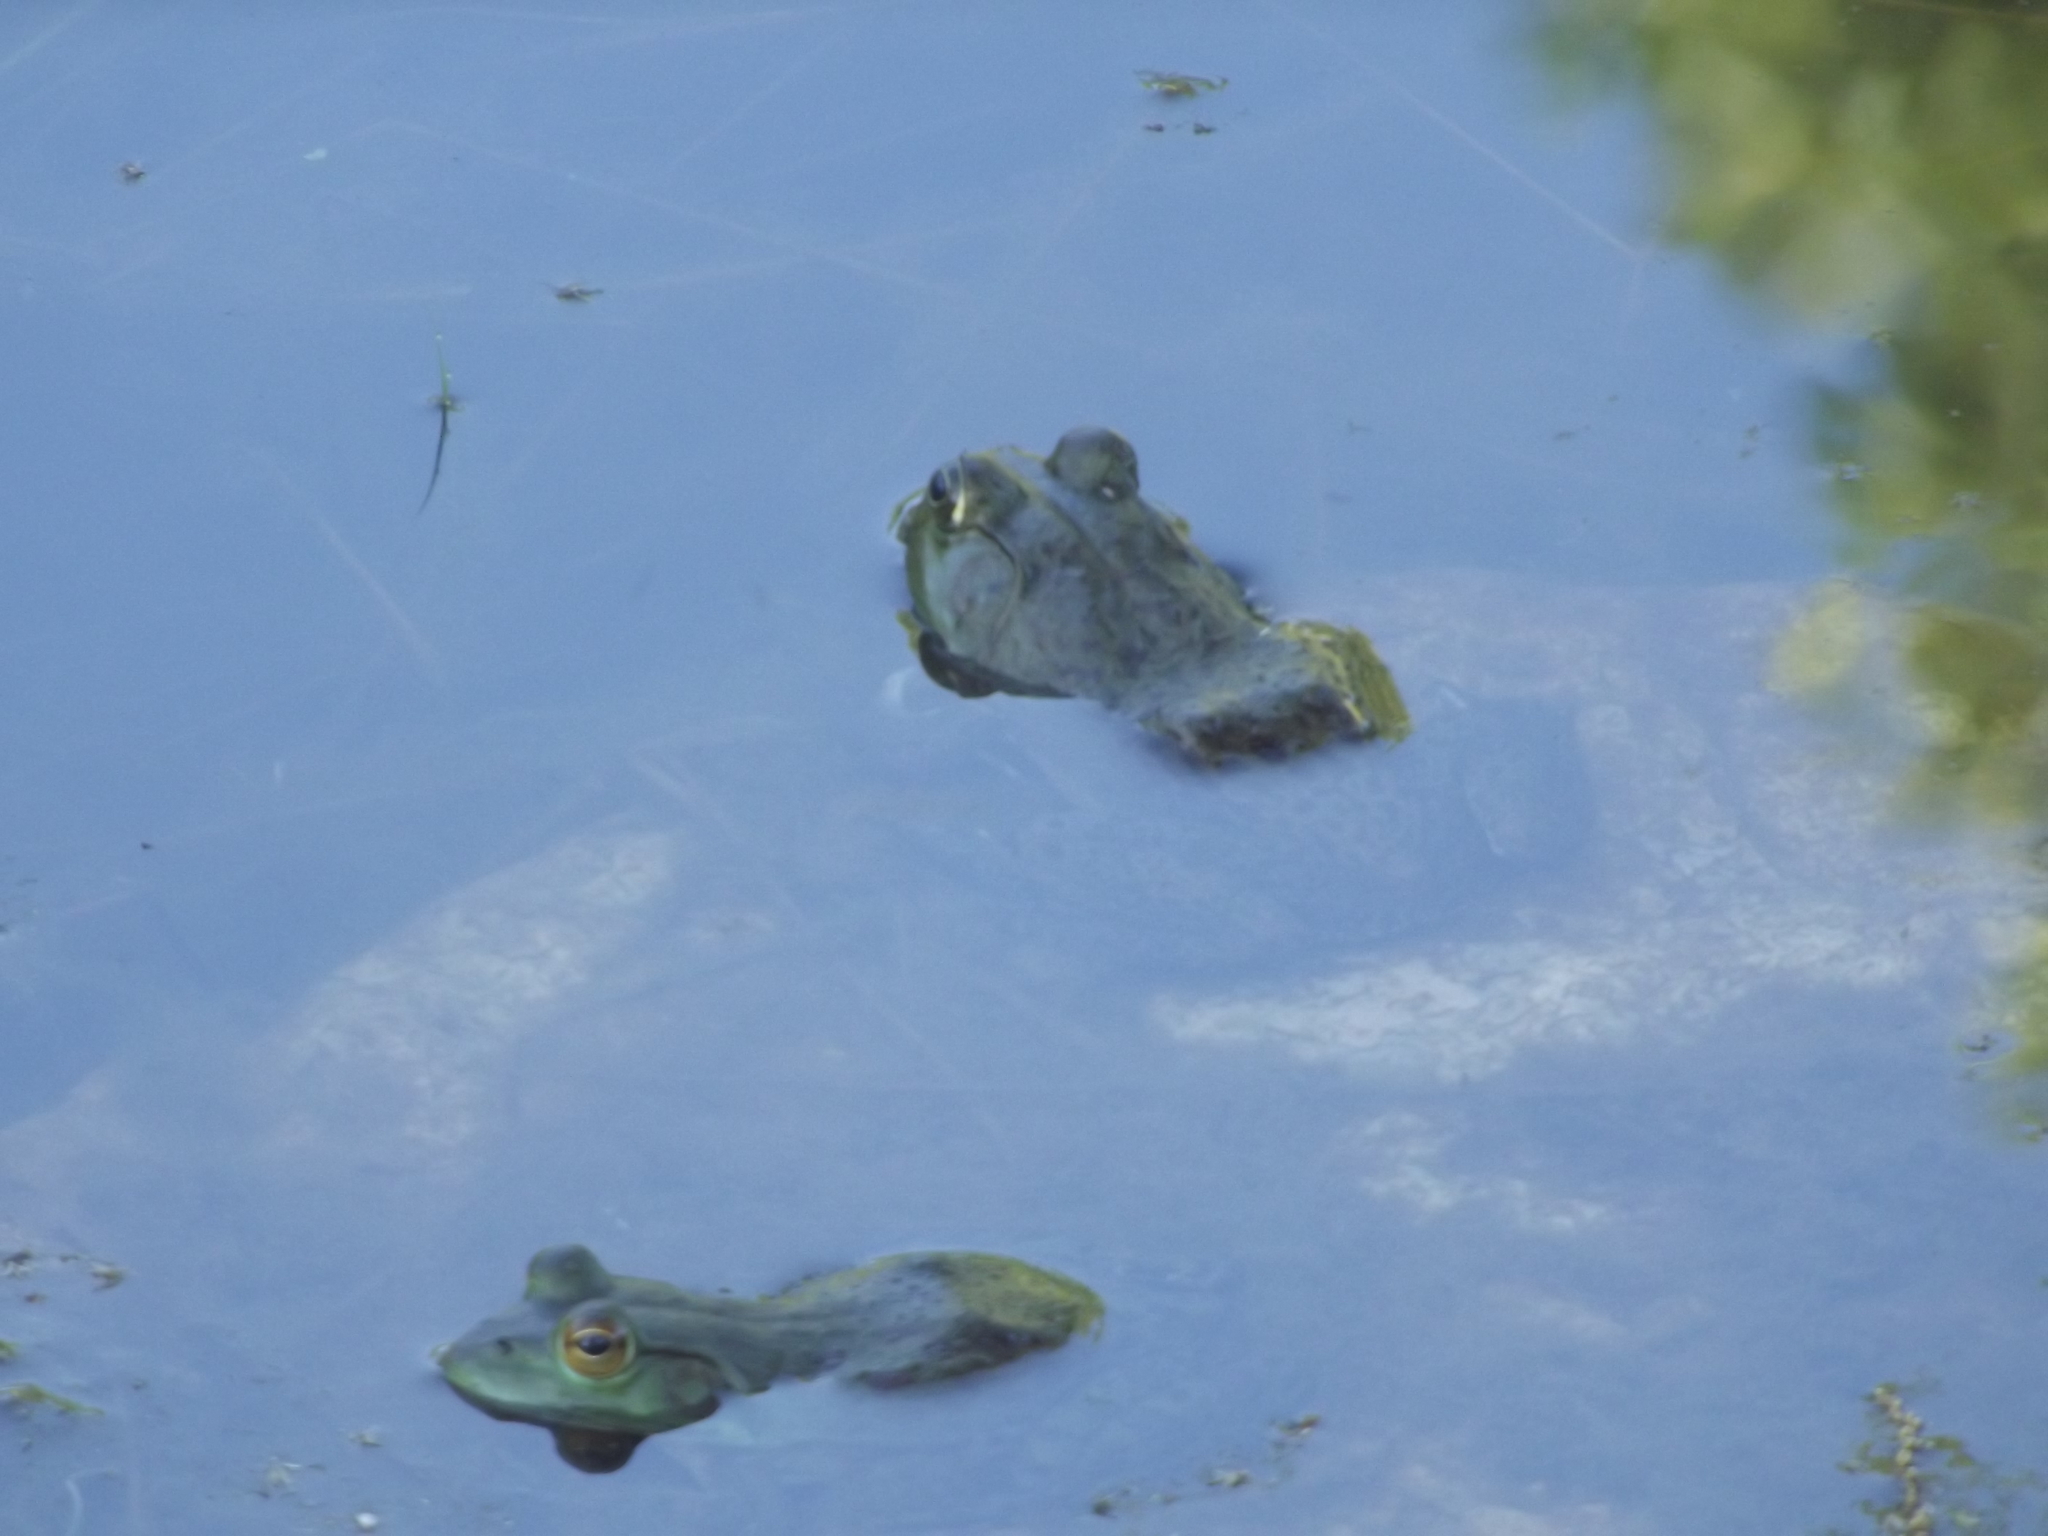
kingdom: Animalia
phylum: Chordata
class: Amphibia
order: Anura
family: Ranidae
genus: Lithobates
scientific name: Lithobates catesbeianus
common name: American bullfrog
